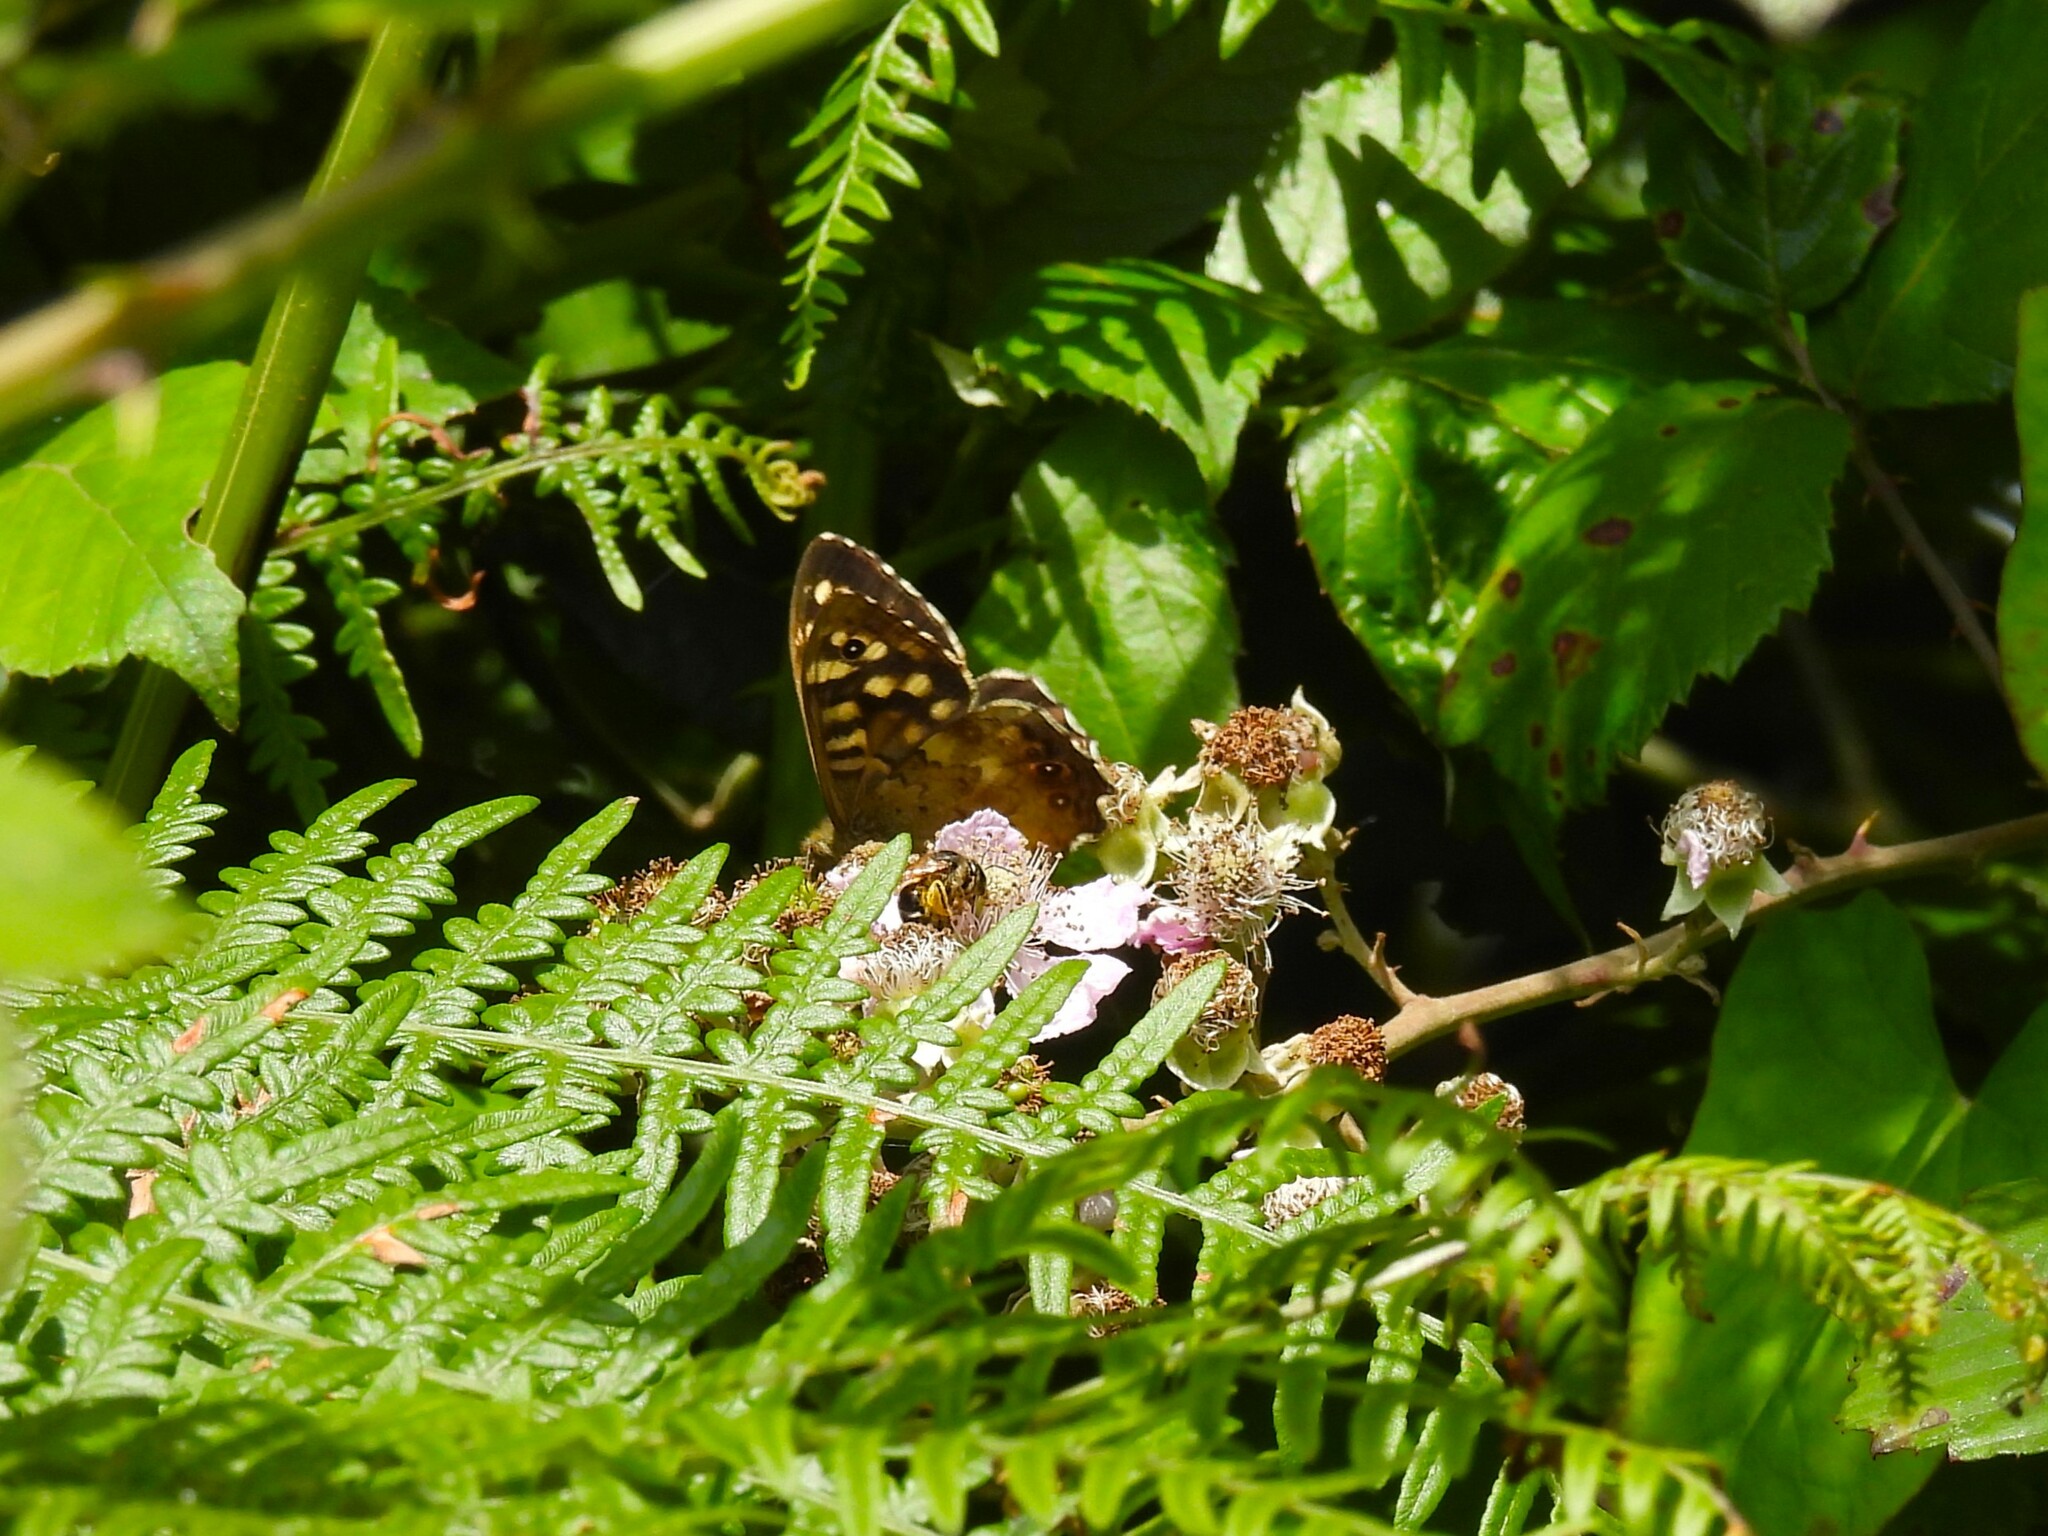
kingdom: Animalia
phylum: Arthropoda
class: Insecta
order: Lepidoptera
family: Nymphalidae
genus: Pararge
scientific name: Pararge aegeria
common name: Speckled wood
